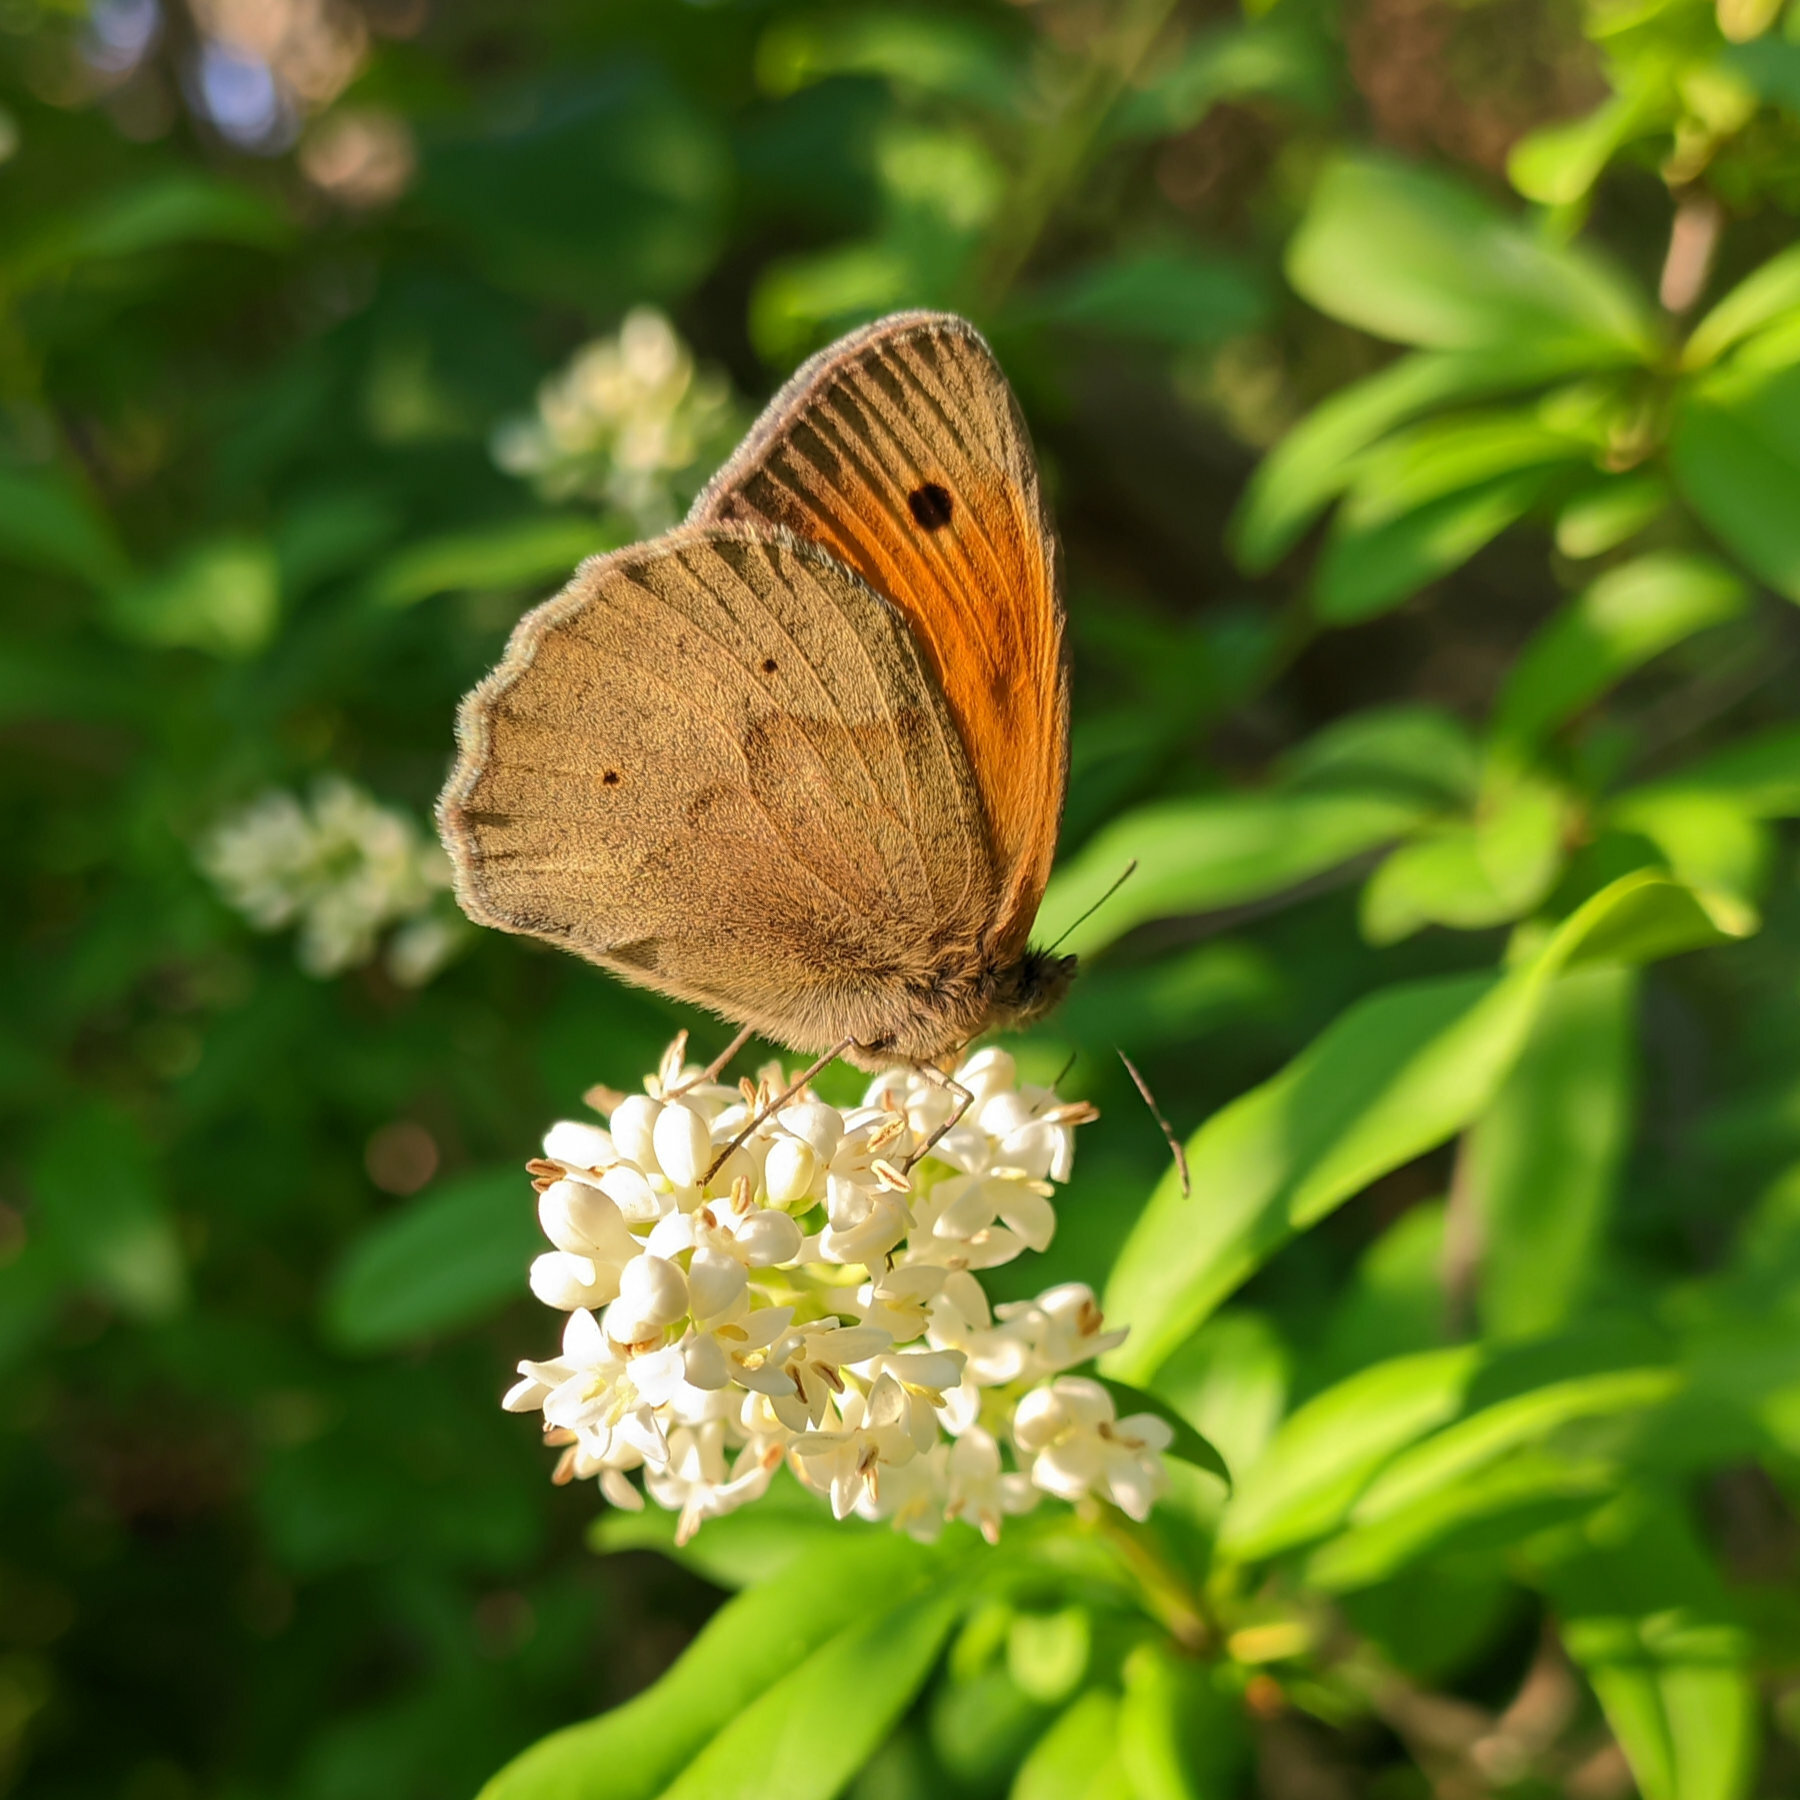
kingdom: Animalia
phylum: Arthropoda
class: Insecta
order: Lepidoptera
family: Nymphalidae
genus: Maniola
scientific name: Maniola jurtina
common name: Meadow brown
